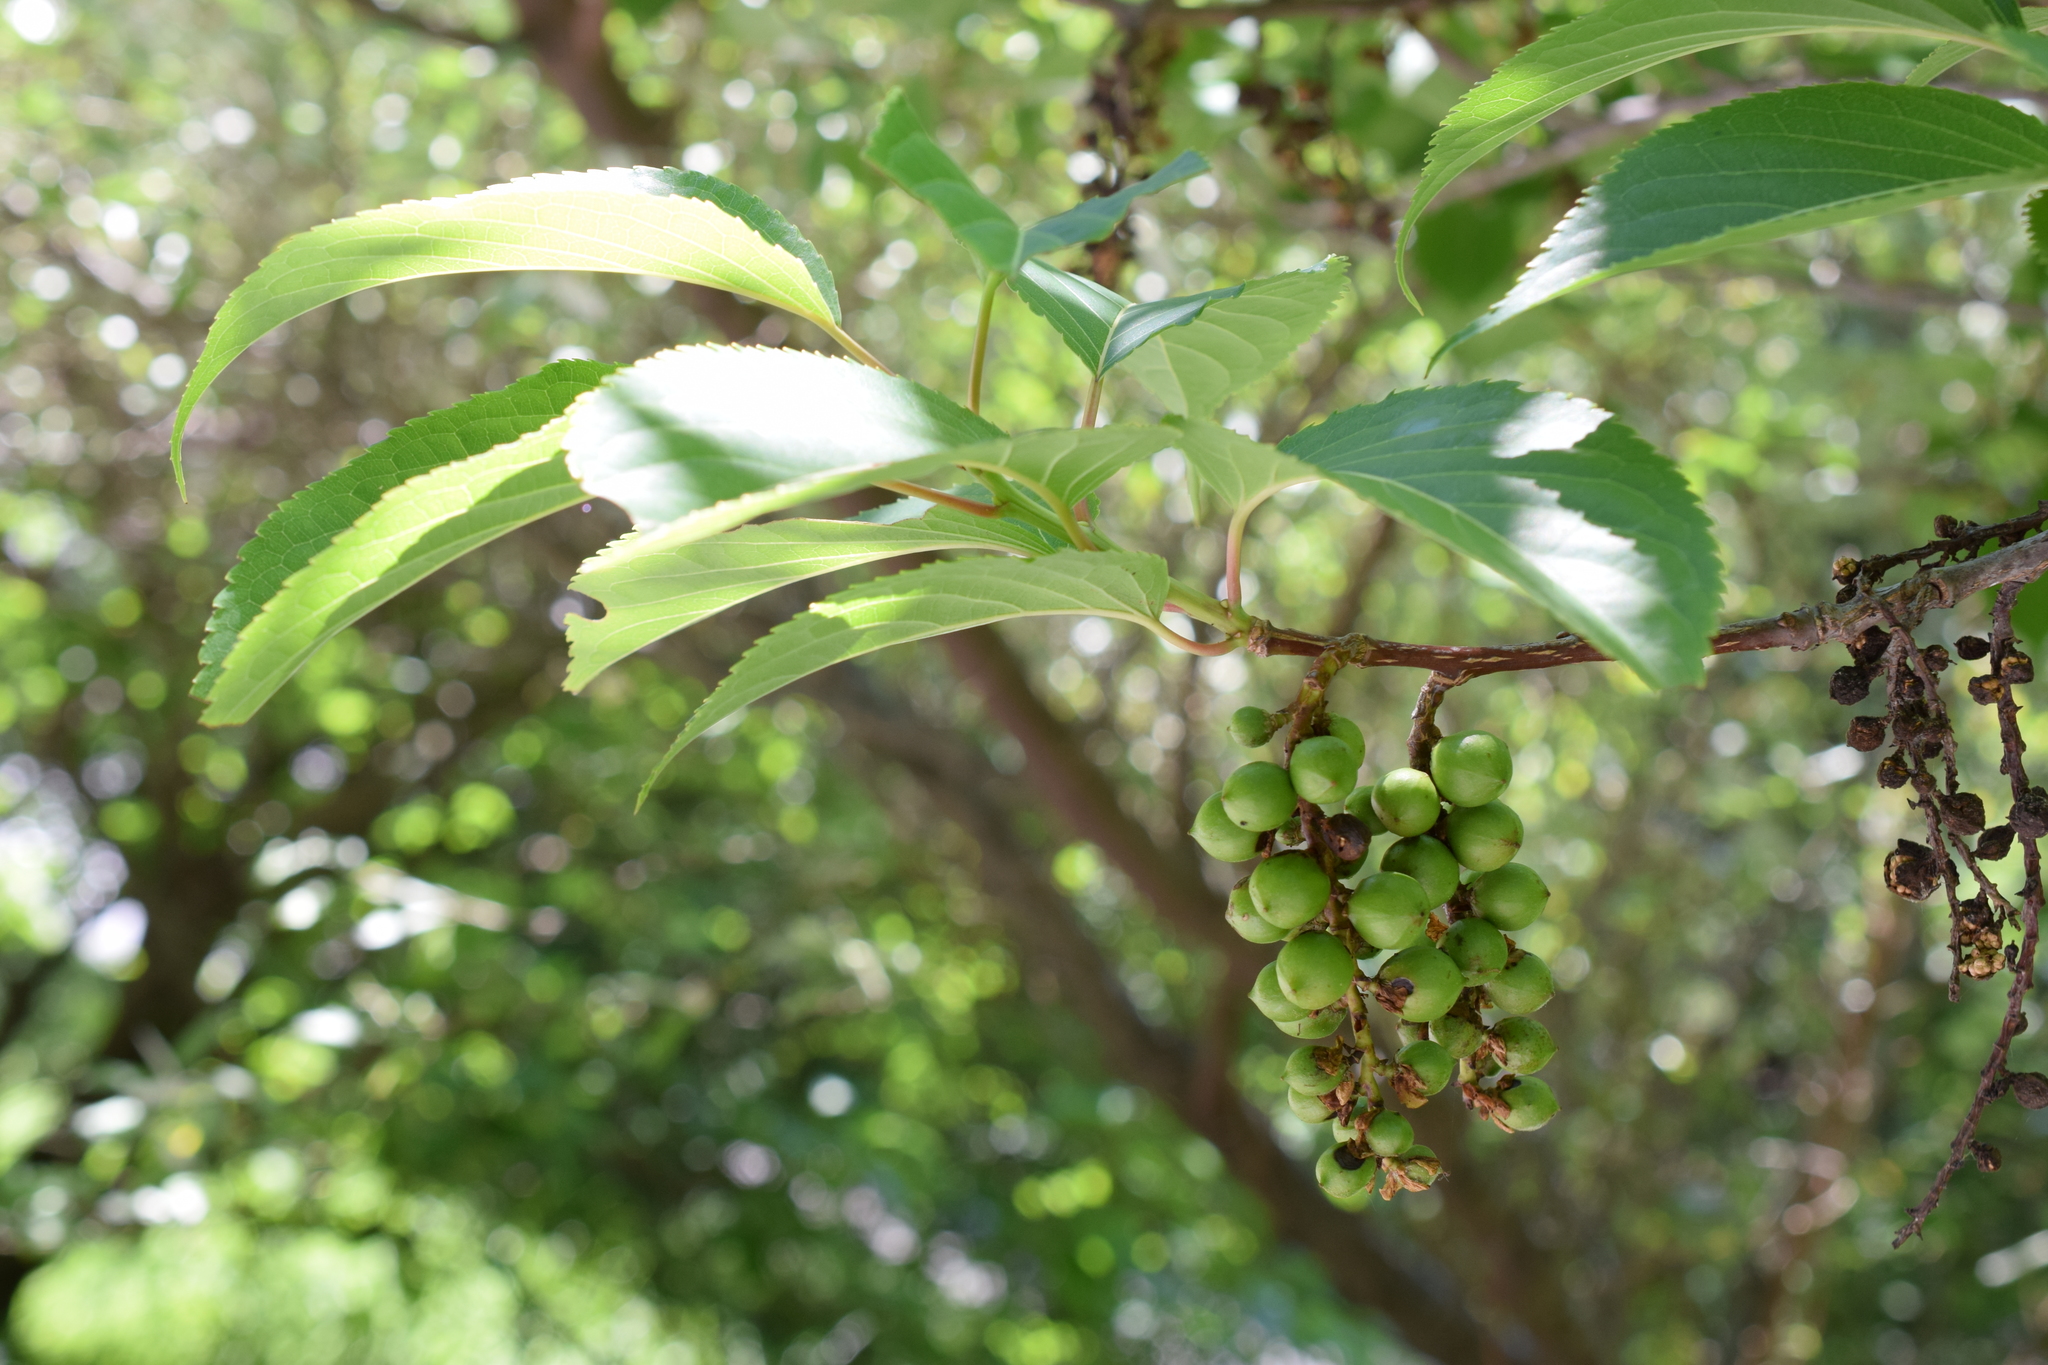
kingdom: Plantae
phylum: Tracheophyta
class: Magnoliopsida
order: Crossosomatales
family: Stachyuraceae
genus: Stachyurus
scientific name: Stachyurus praecox
